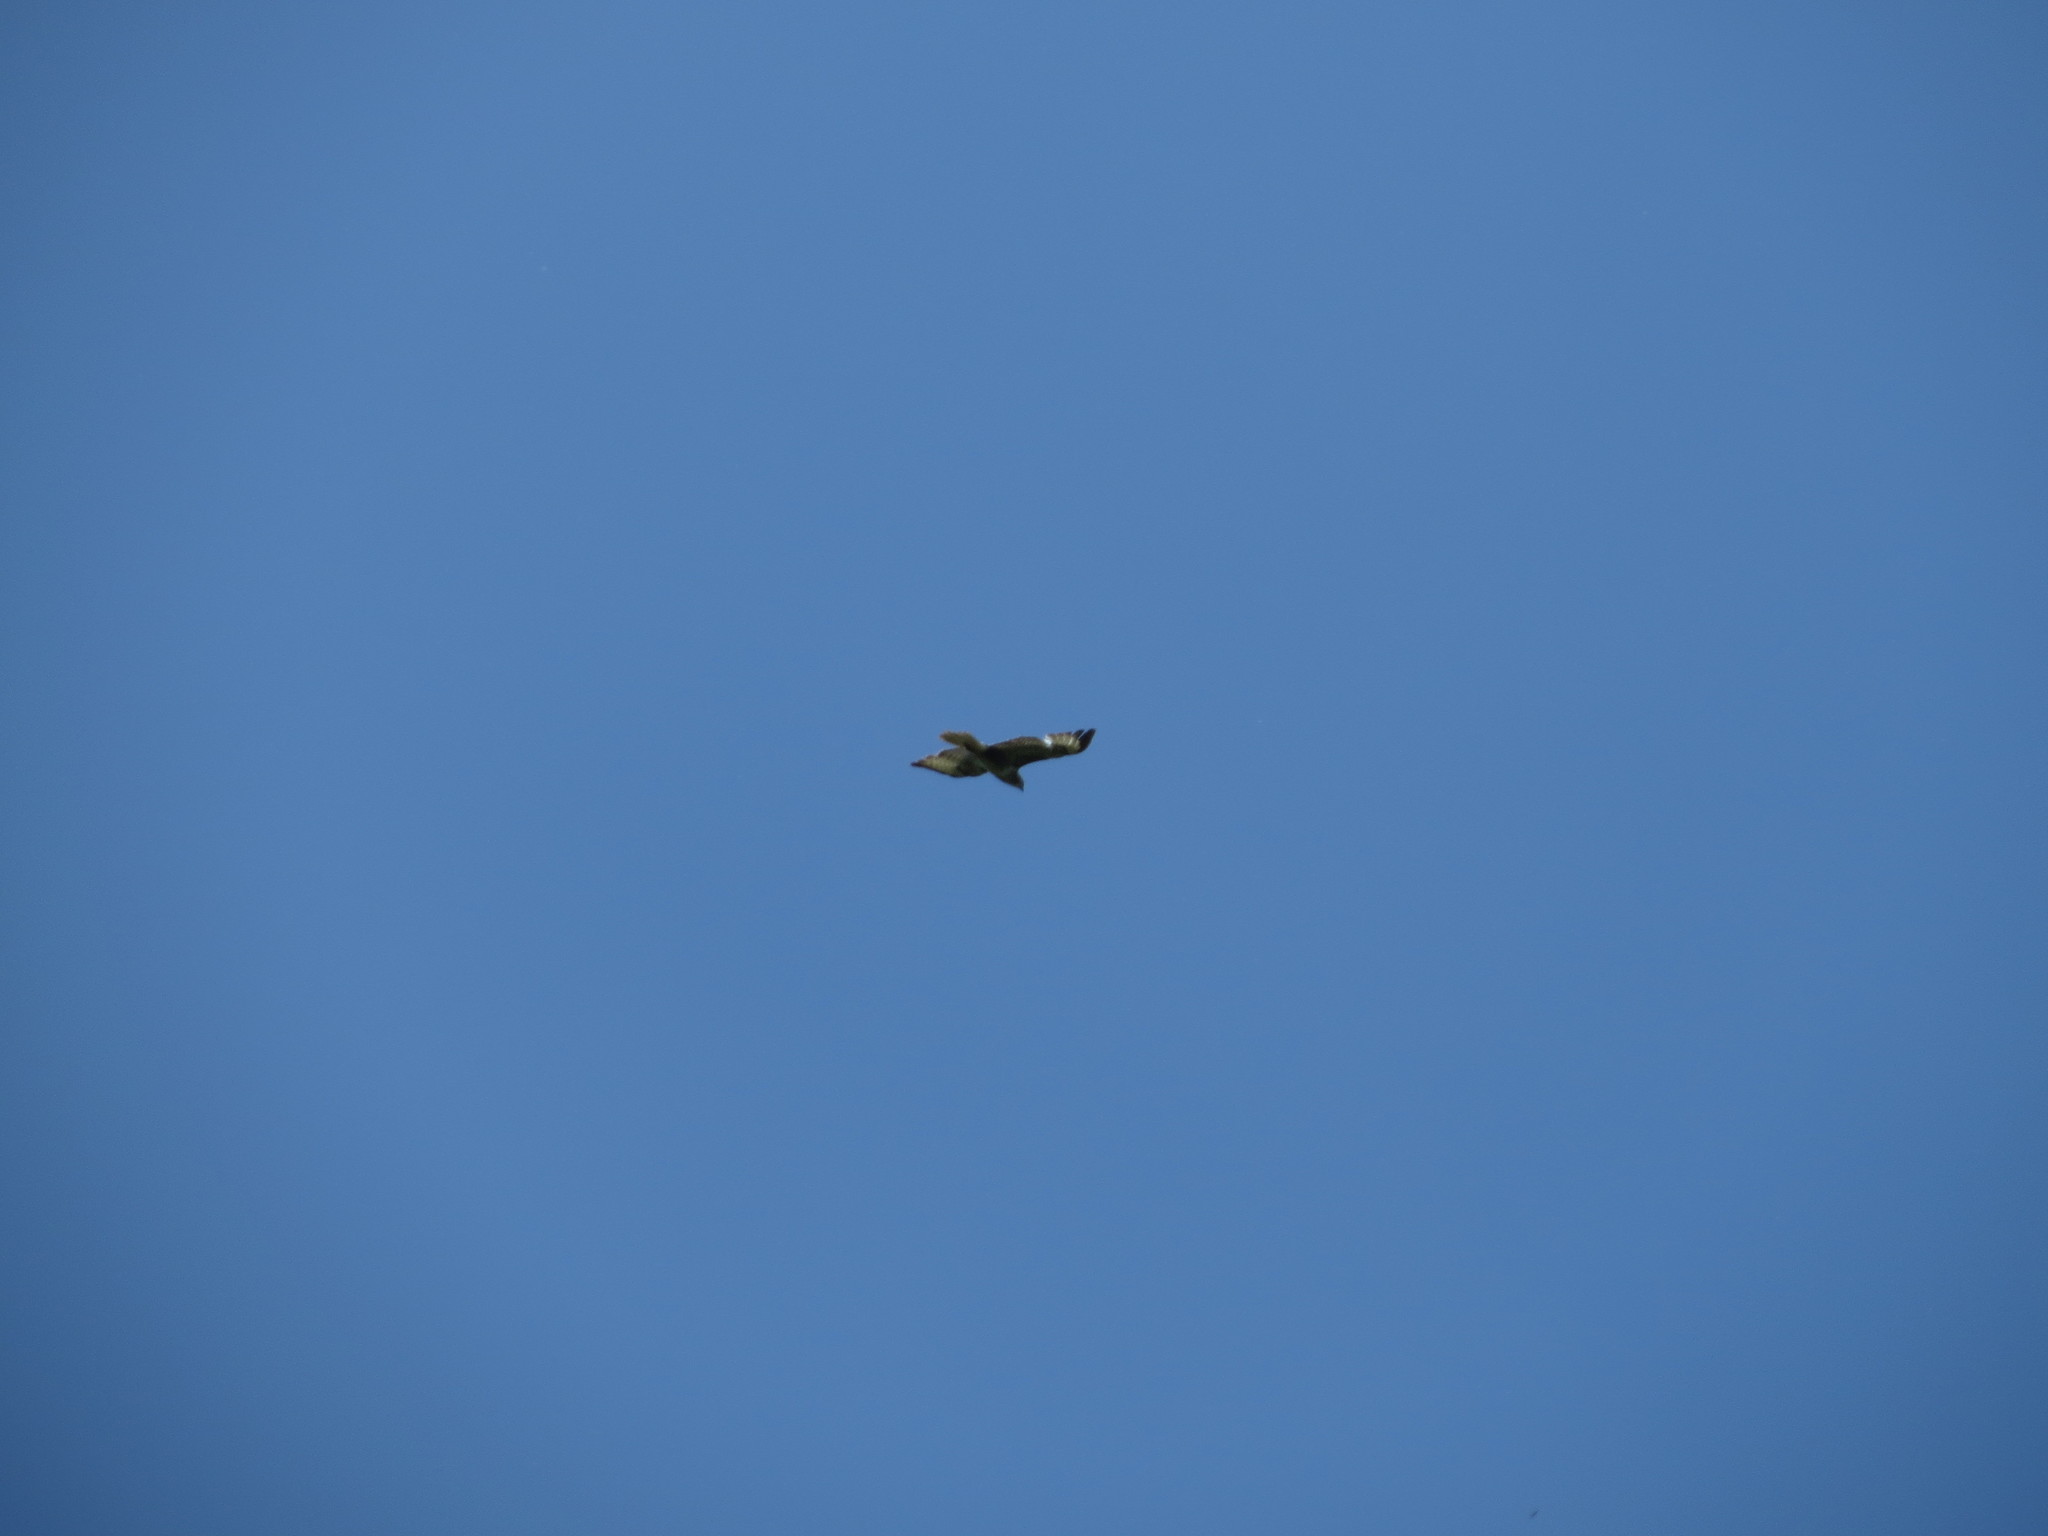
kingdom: Animalia
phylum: Chordata
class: Aves
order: Accipitriformes
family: Accipitridae
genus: Buteo
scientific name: Buteo buteo
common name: Common buzzard
